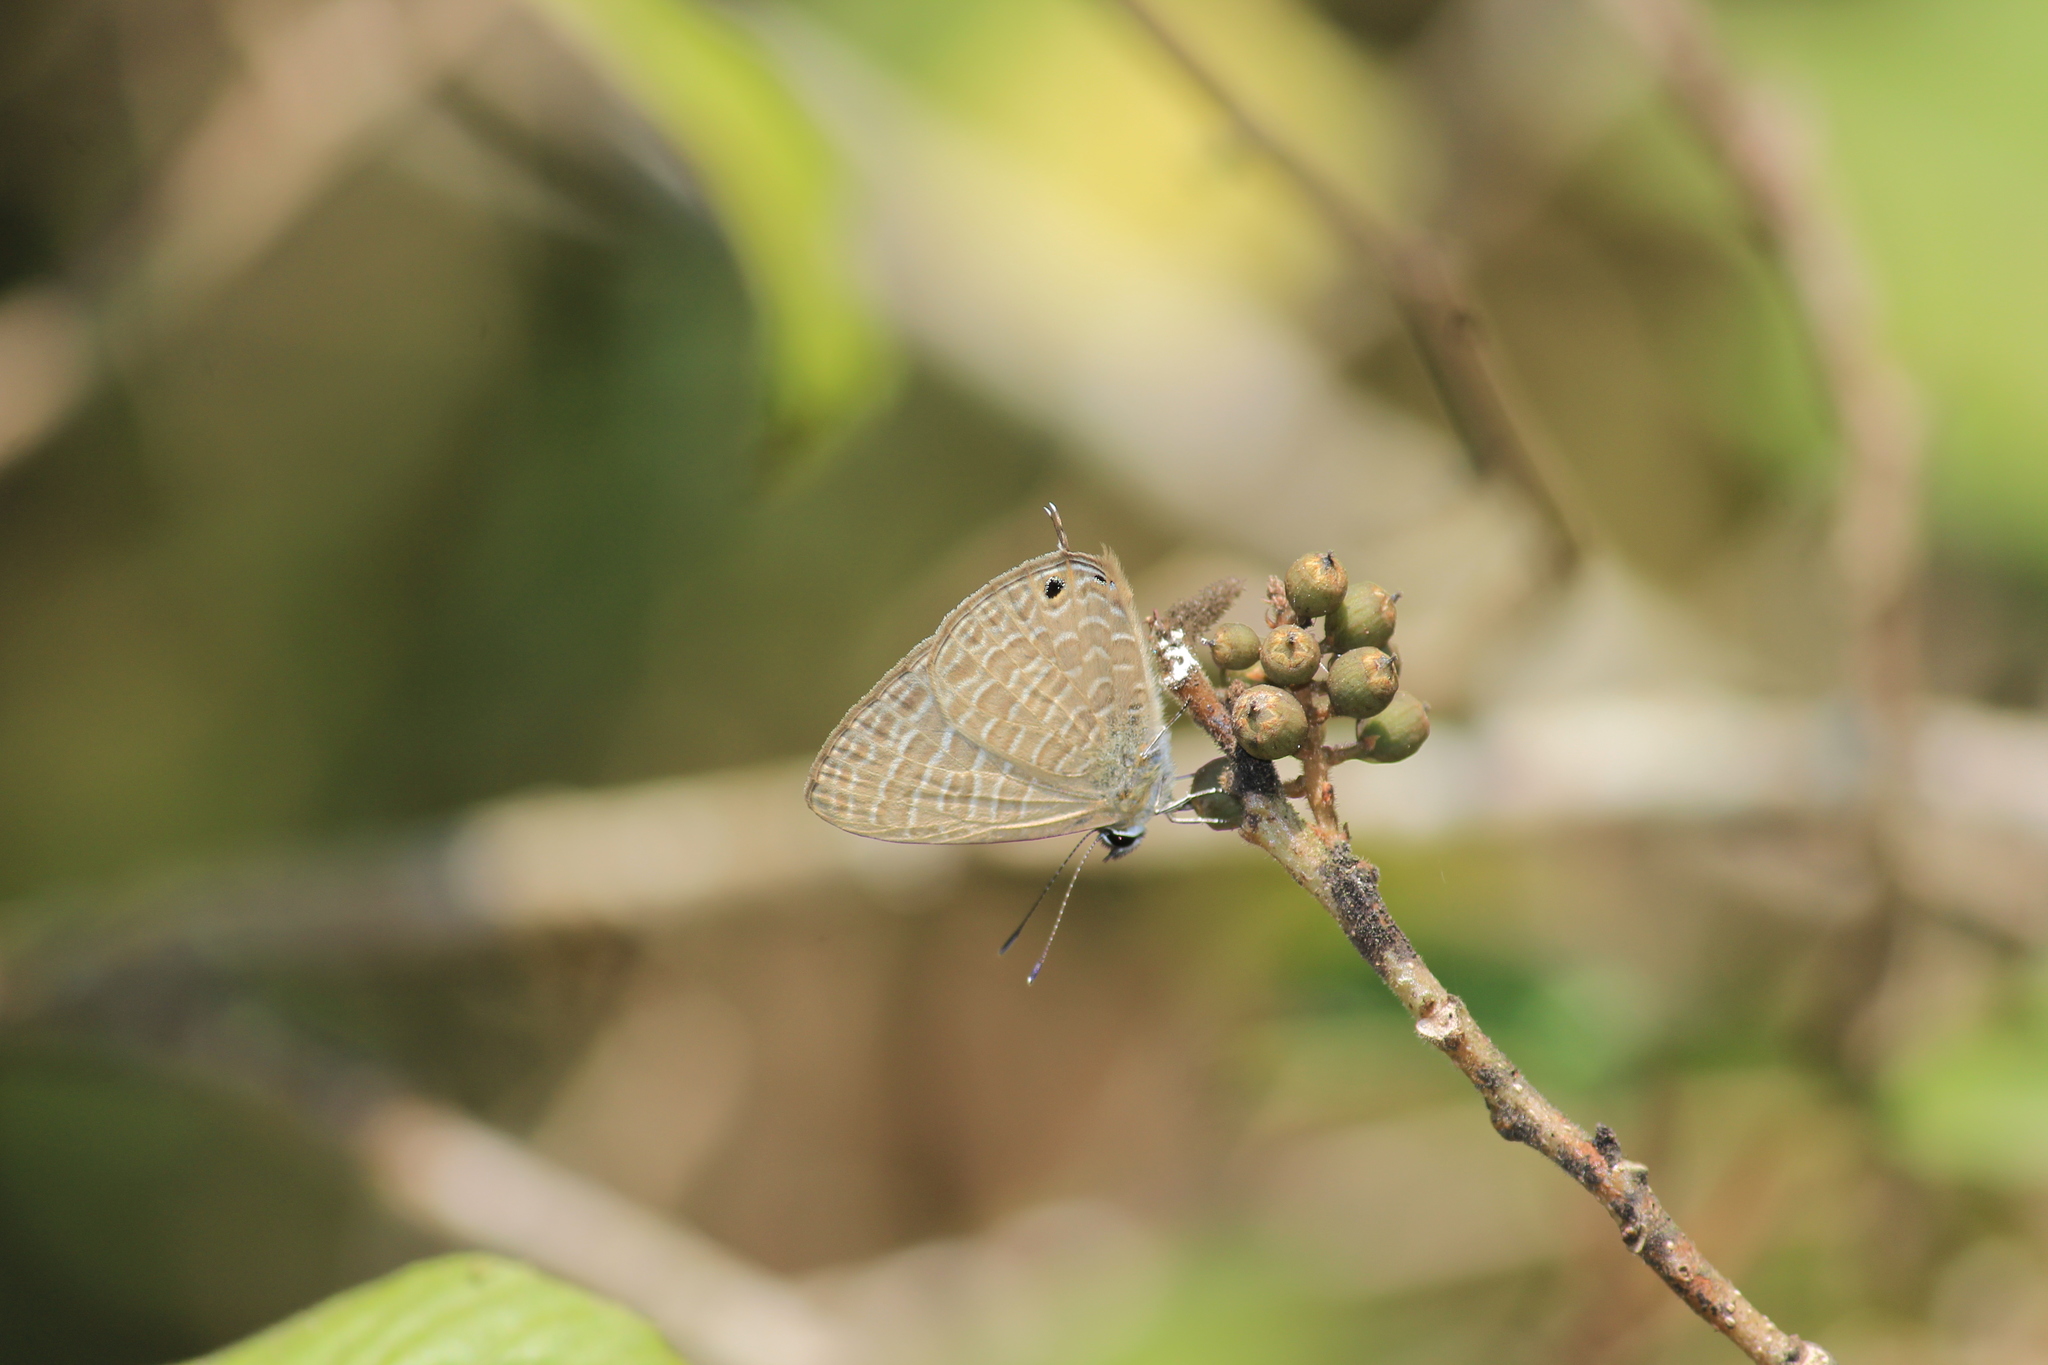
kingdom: Animalia
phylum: Arthropoda
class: Insecta
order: Lepidoptera
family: Lycaenidae
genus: Chilades
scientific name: Chilades laius
